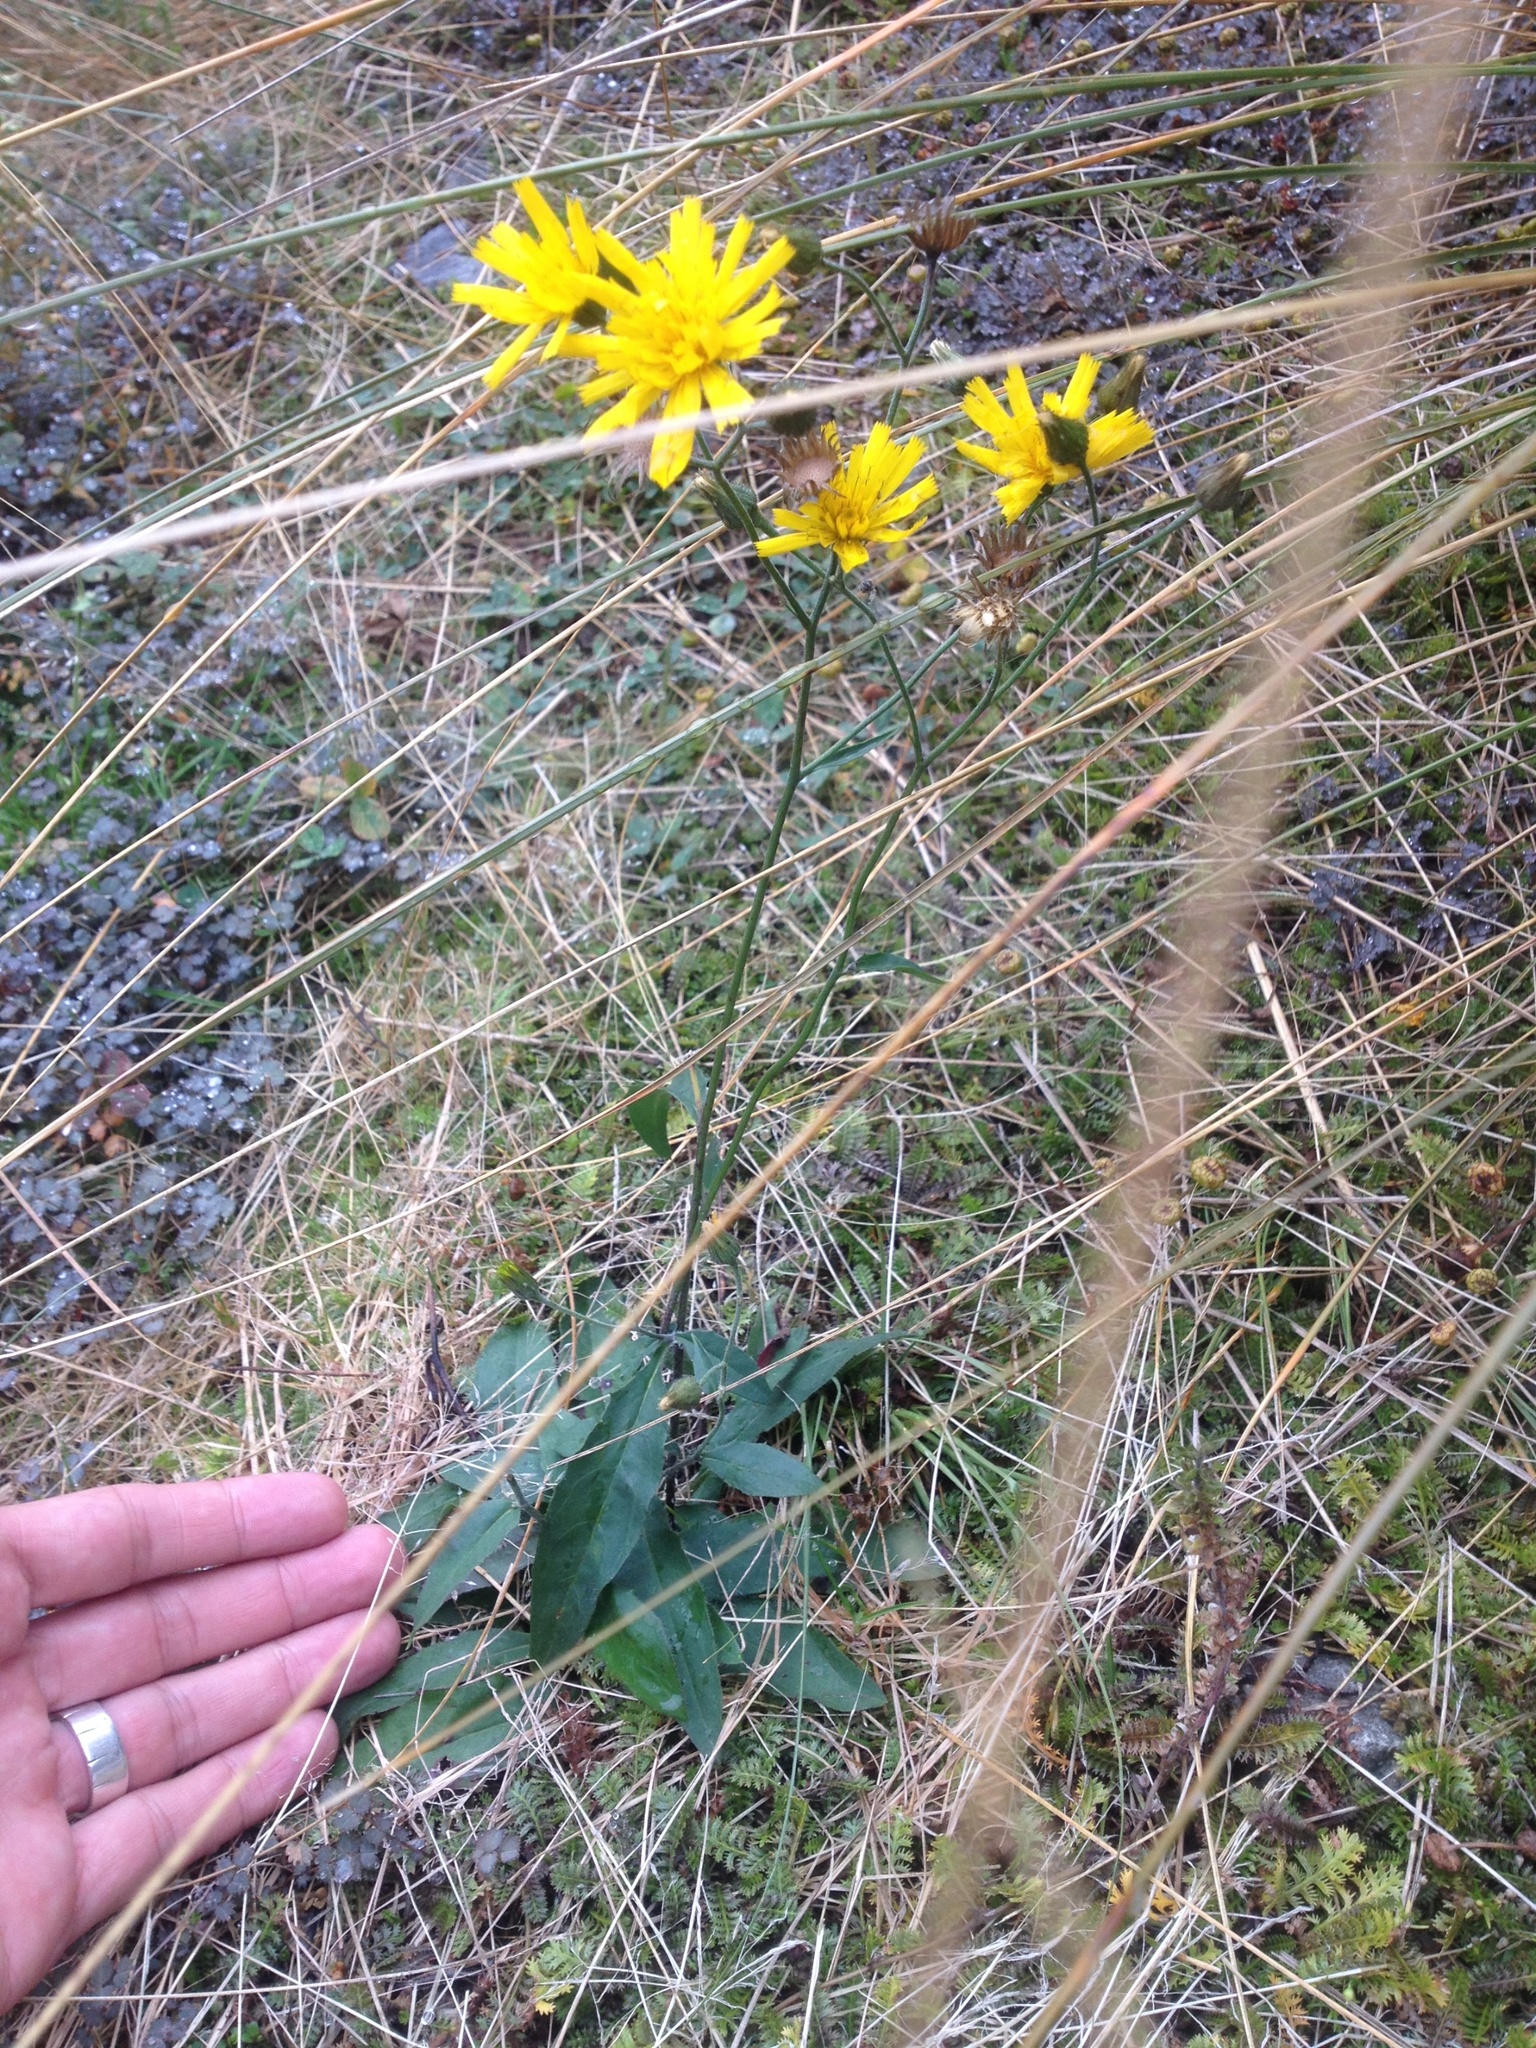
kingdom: Plantae
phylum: Tracheophyta
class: Magnoliopsida
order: Asterales
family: Asteraceae
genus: Hieracium
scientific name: Hieracium lepidulum
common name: Irregular-toothed hawkweed
